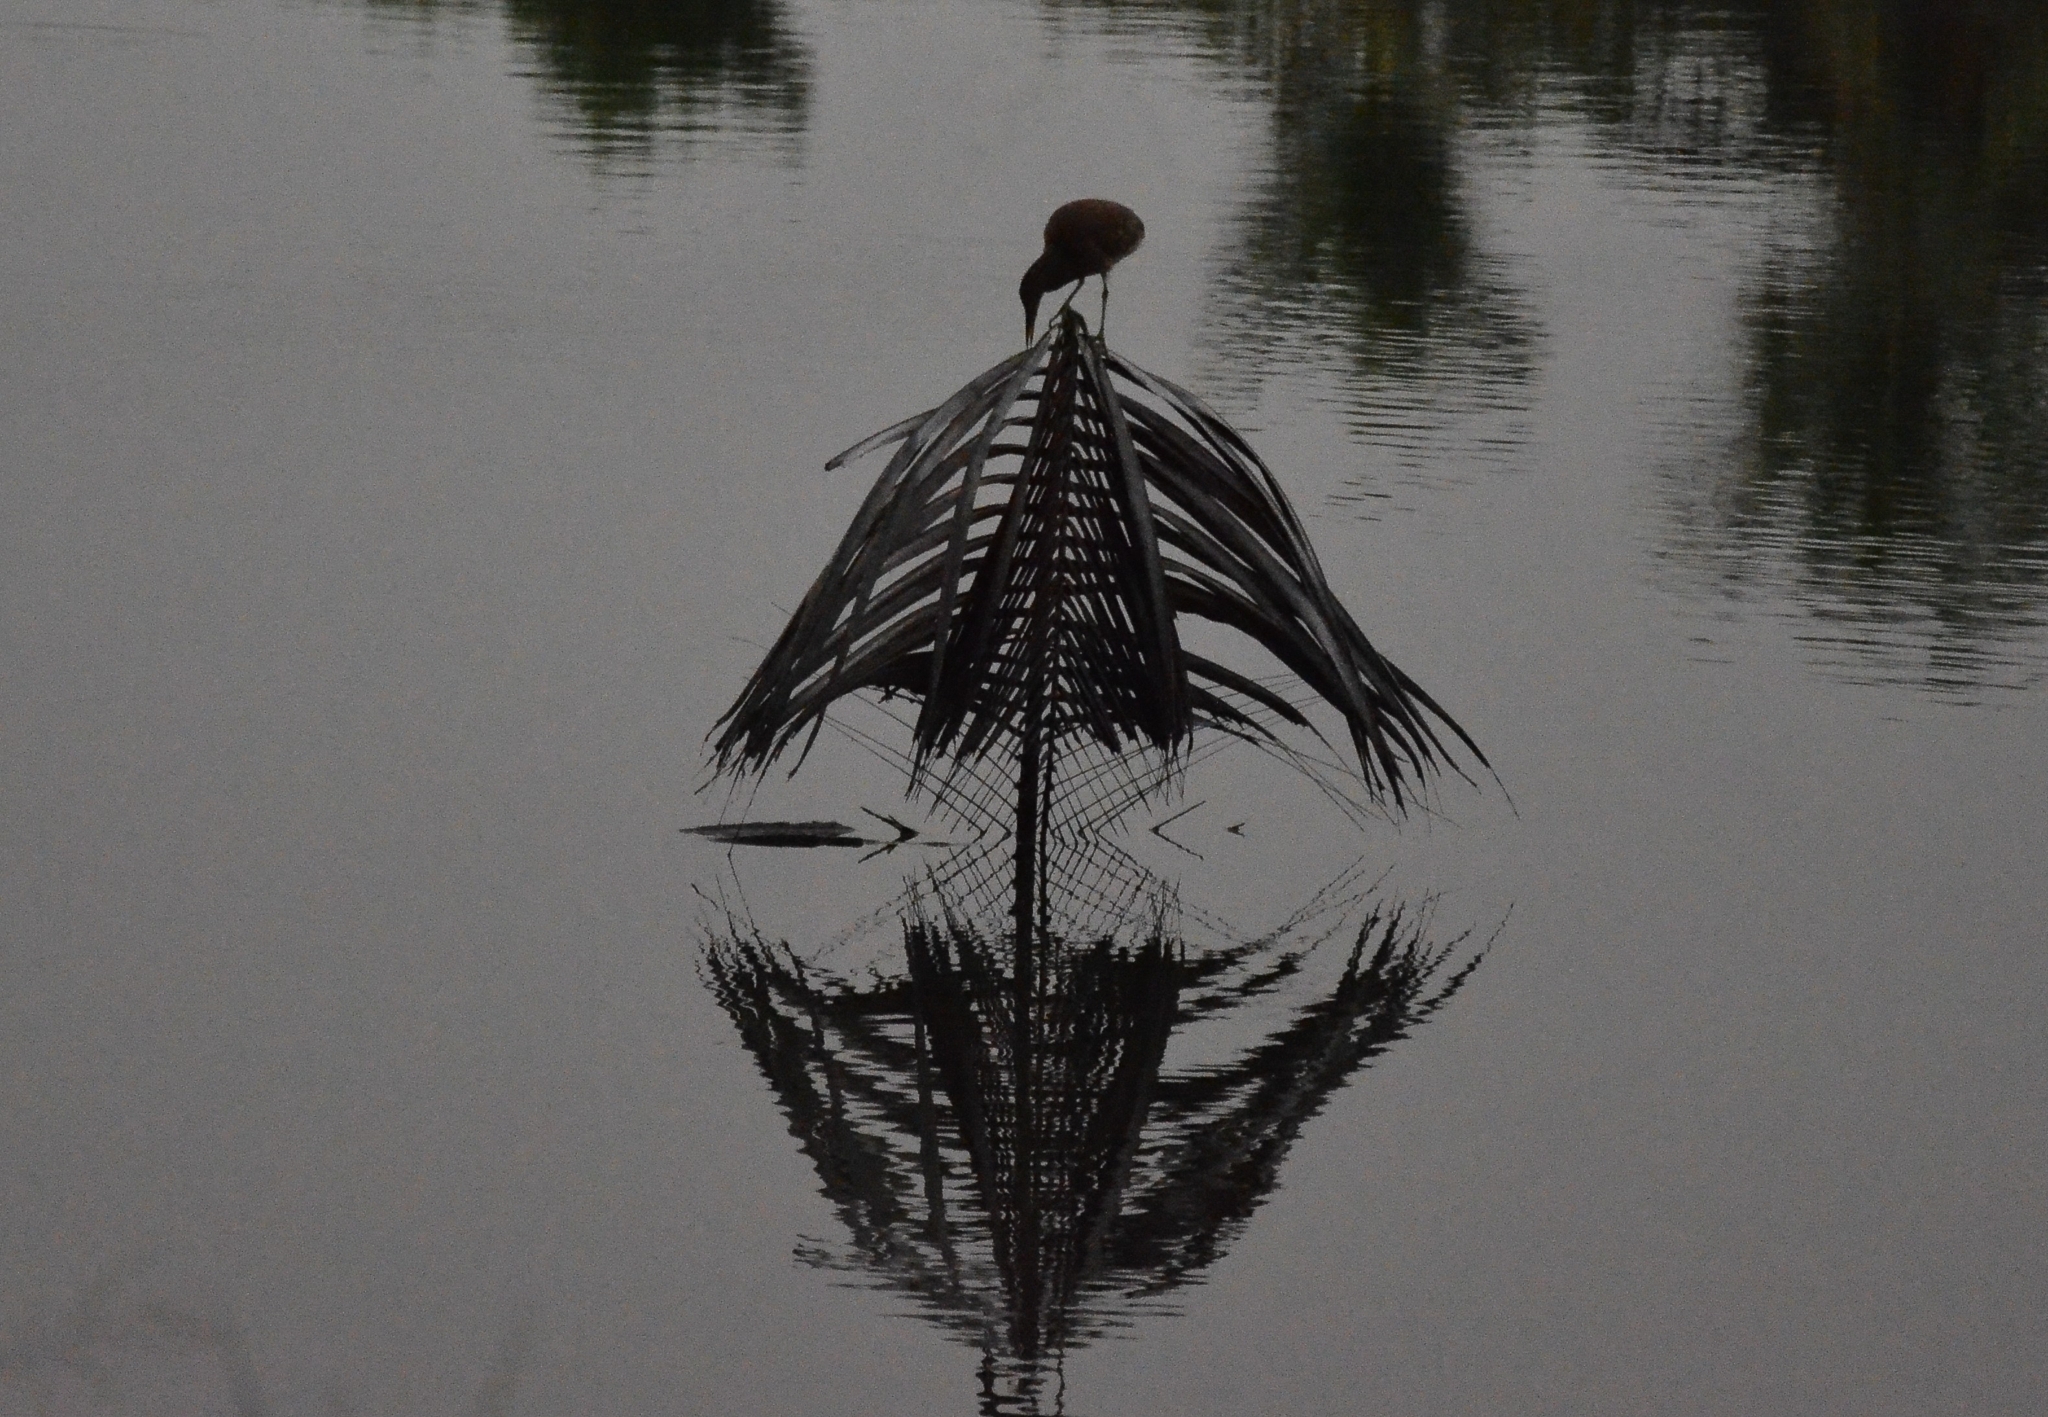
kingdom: Animalia
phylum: Chordata
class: Aves
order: Pelecaniformes
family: Ardeidae
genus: Ardeola
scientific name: Ardeola grayii
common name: Indian pond heron
